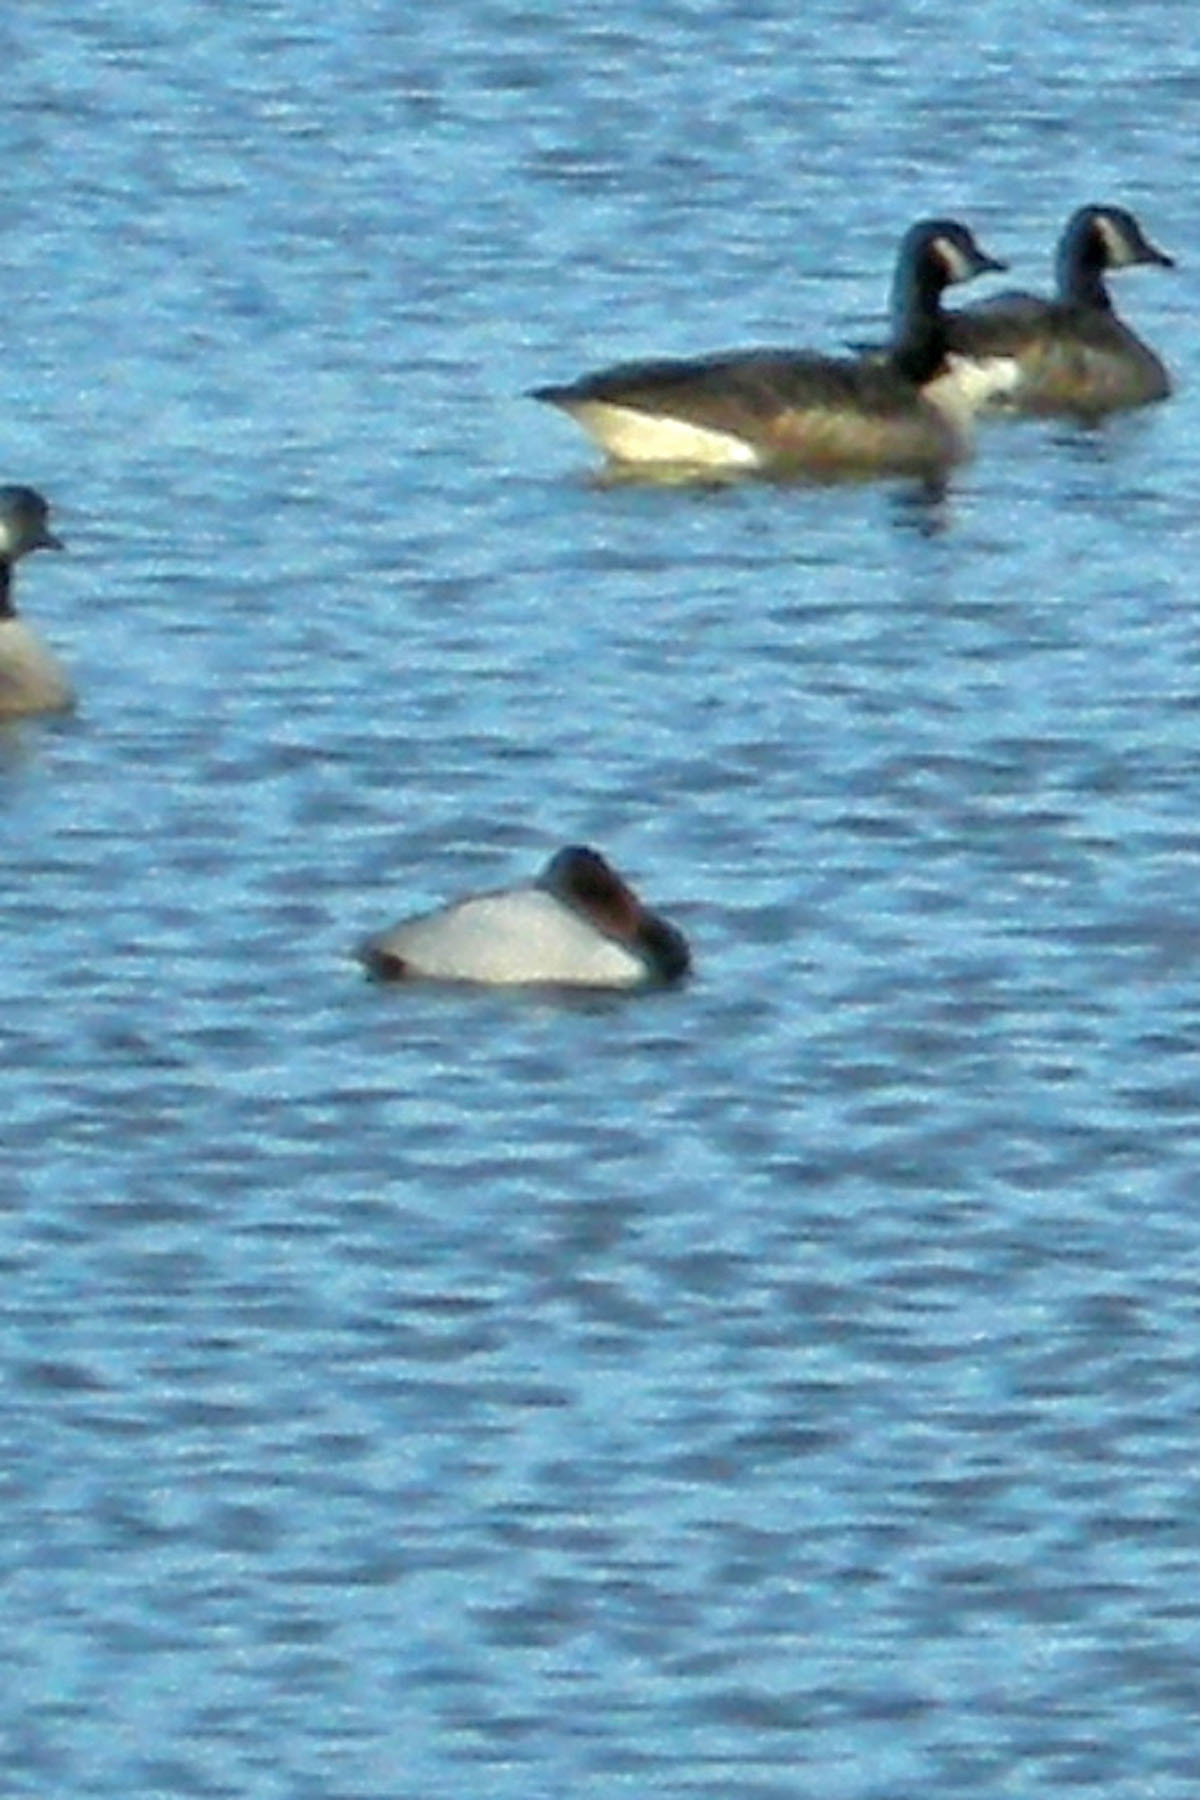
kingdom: Animalia
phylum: Chordata
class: Aves
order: Anseriformes
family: Anatidae
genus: Aythya
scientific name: Aythya valisineria
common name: Canvasback
